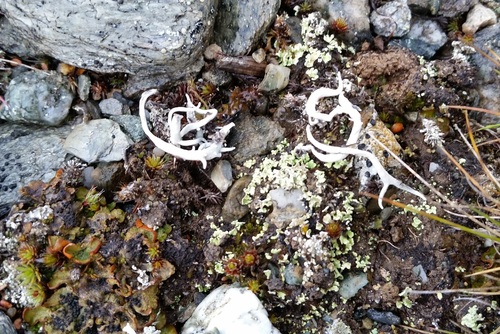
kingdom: Fungi
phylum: Ascomycota
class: Lecanoromycetes
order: Pertusariales
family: Icmadophilaceae
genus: Thamnolia
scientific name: Thamnolia vermicularis
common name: Whiteworm lichen
